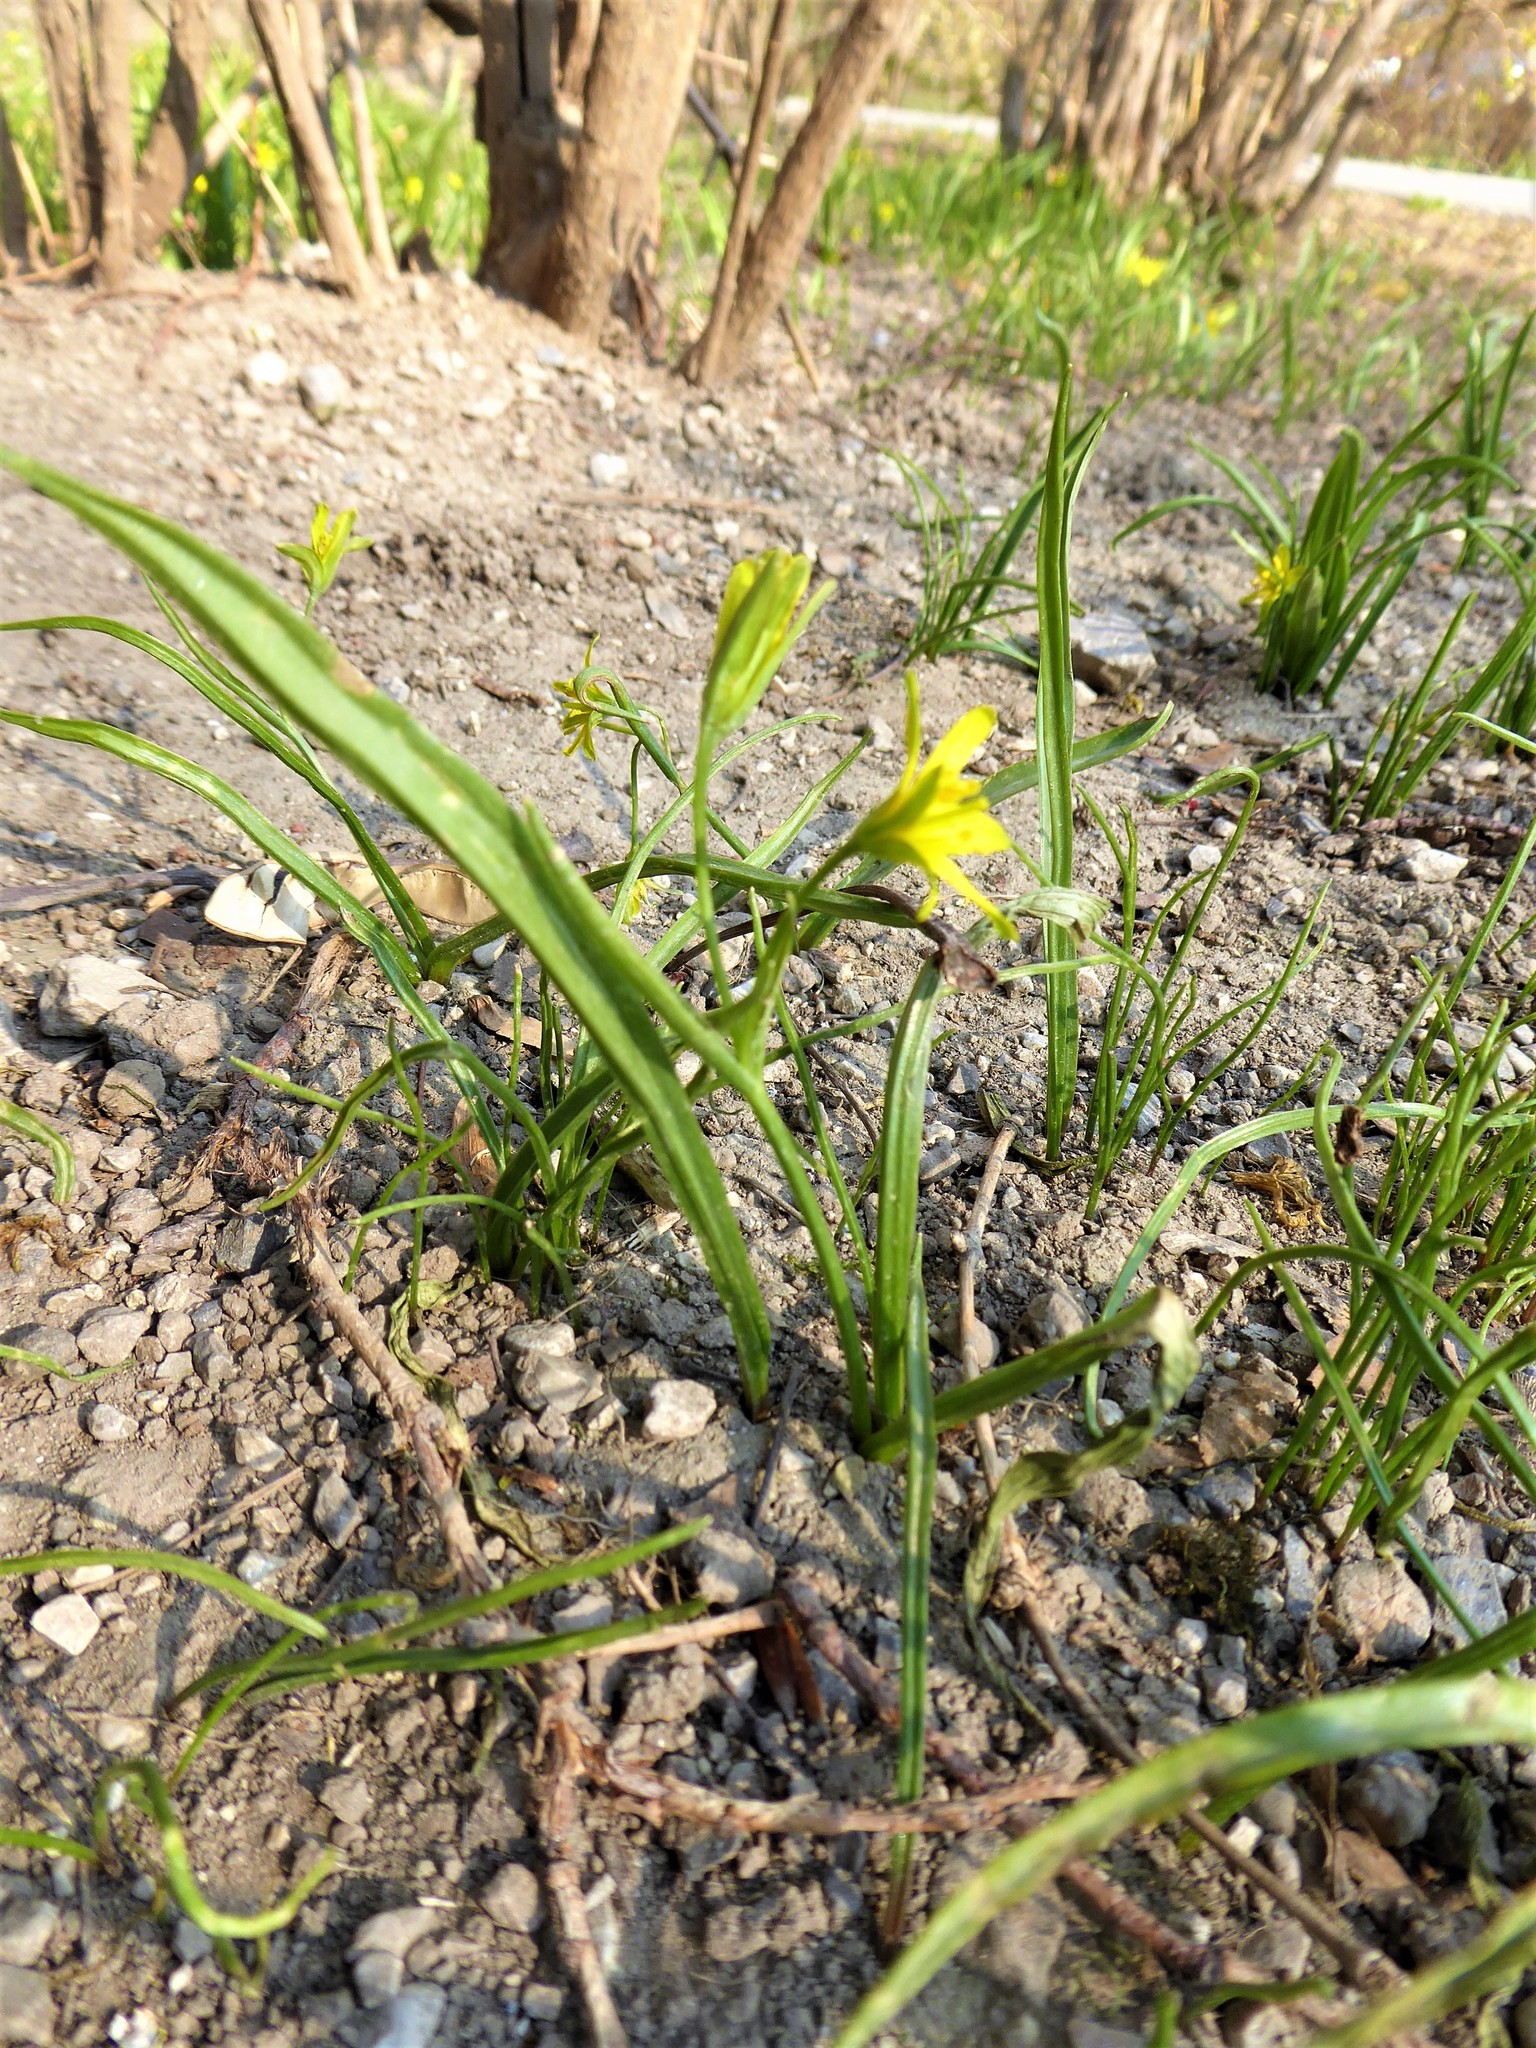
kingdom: Plantae
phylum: Tracheophyta
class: Liliopsida
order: Liliales
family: Liliaceae
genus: Gagea
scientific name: Gagea lutea
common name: Yellow star-of-bethlehem
